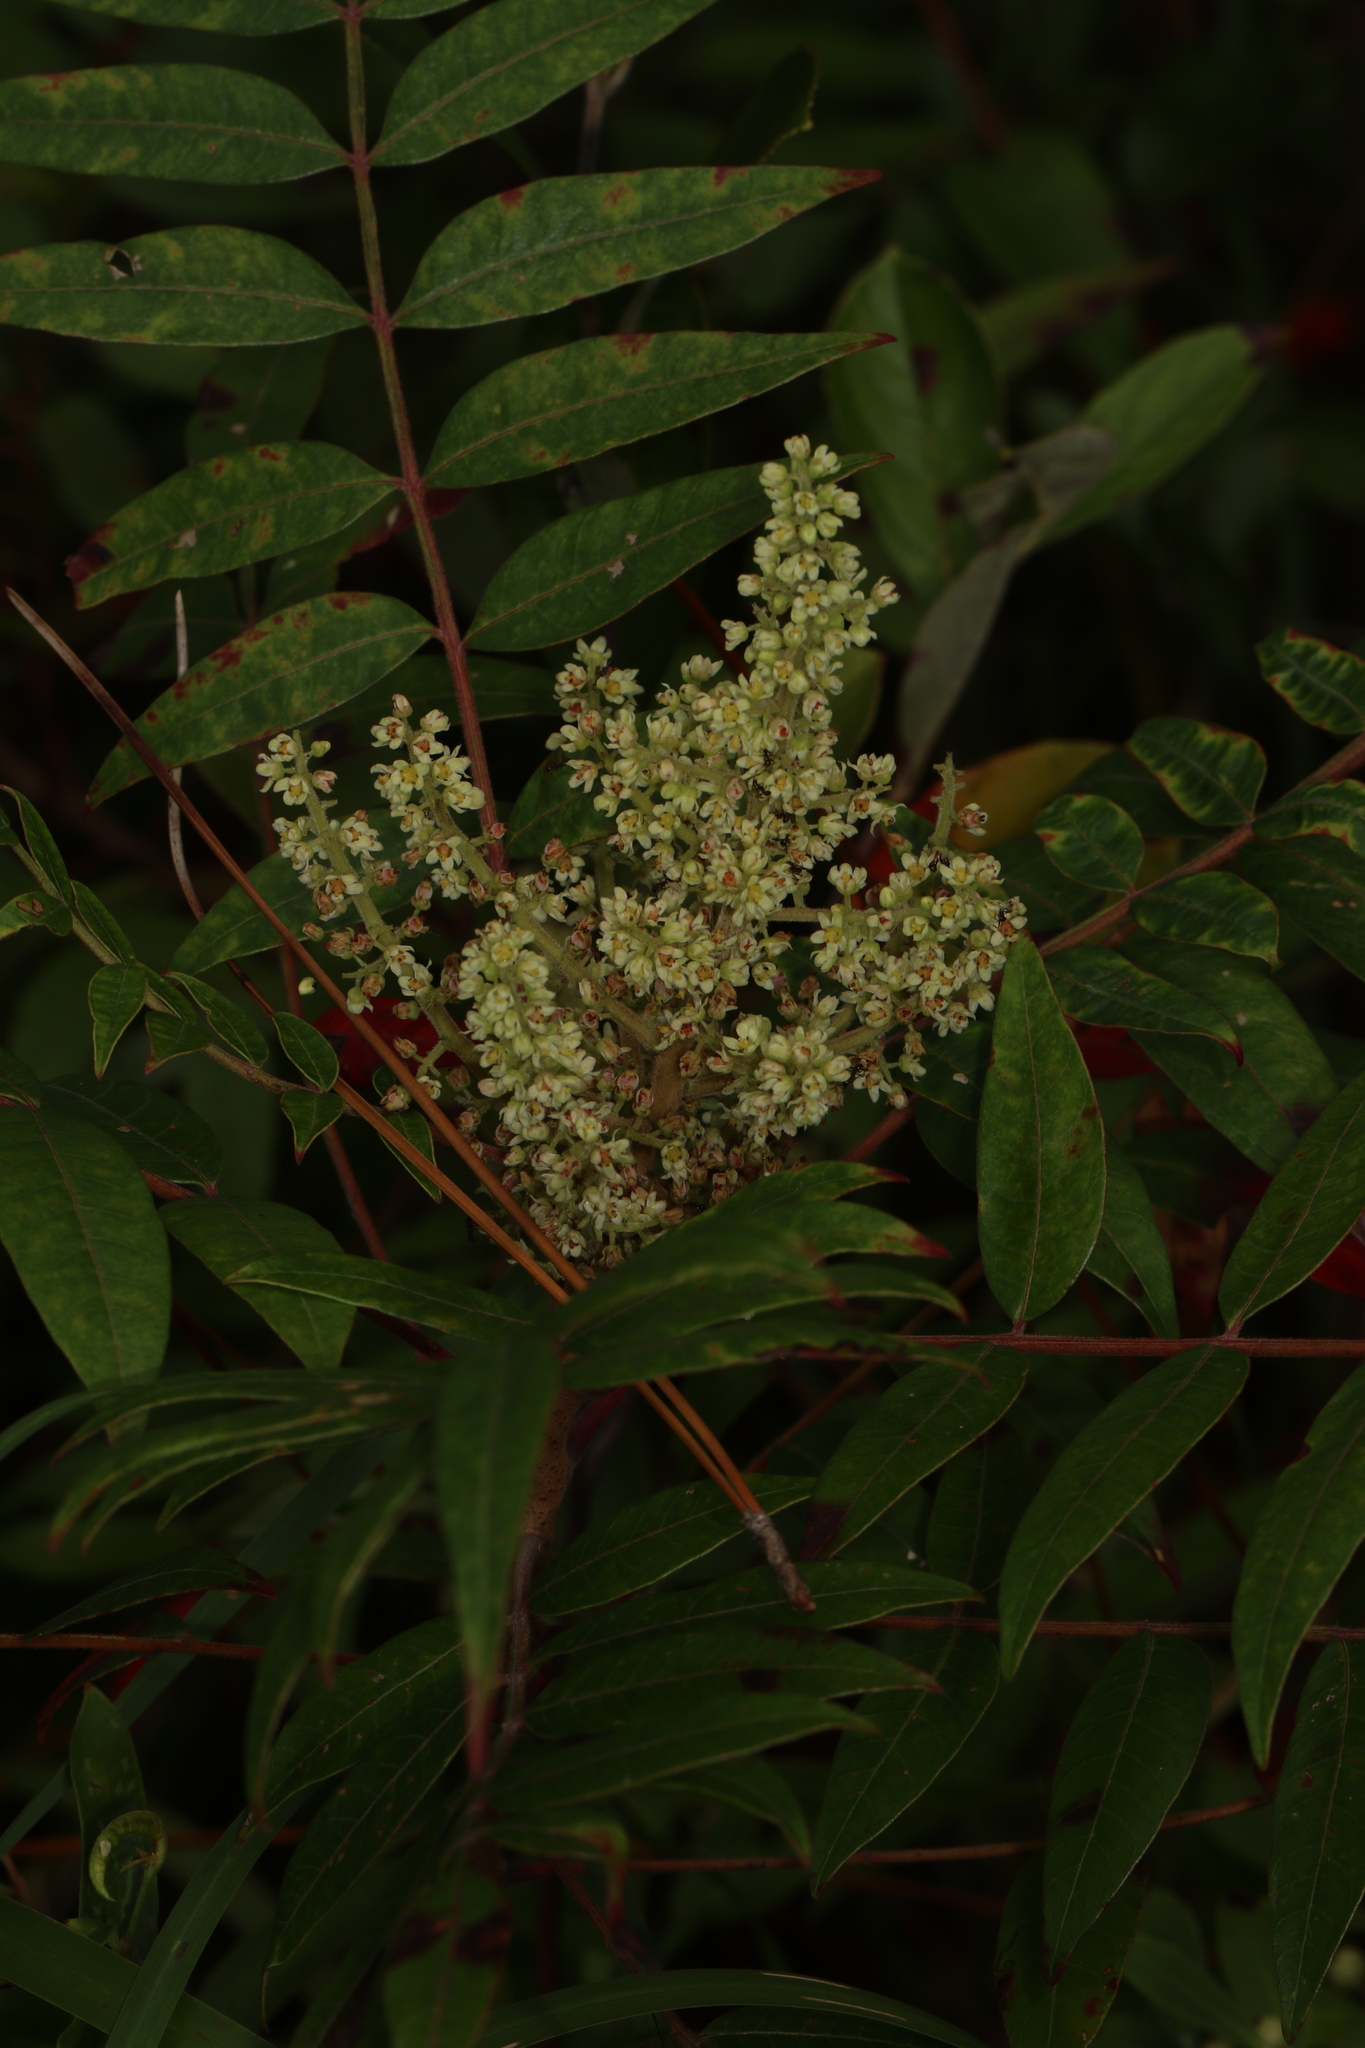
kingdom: Plantae
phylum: Tracheophyta
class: Magnoliopsida
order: Sapindales
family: Anacardiaceae
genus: Rhus
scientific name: Rhus copallina
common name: Shining sumac
